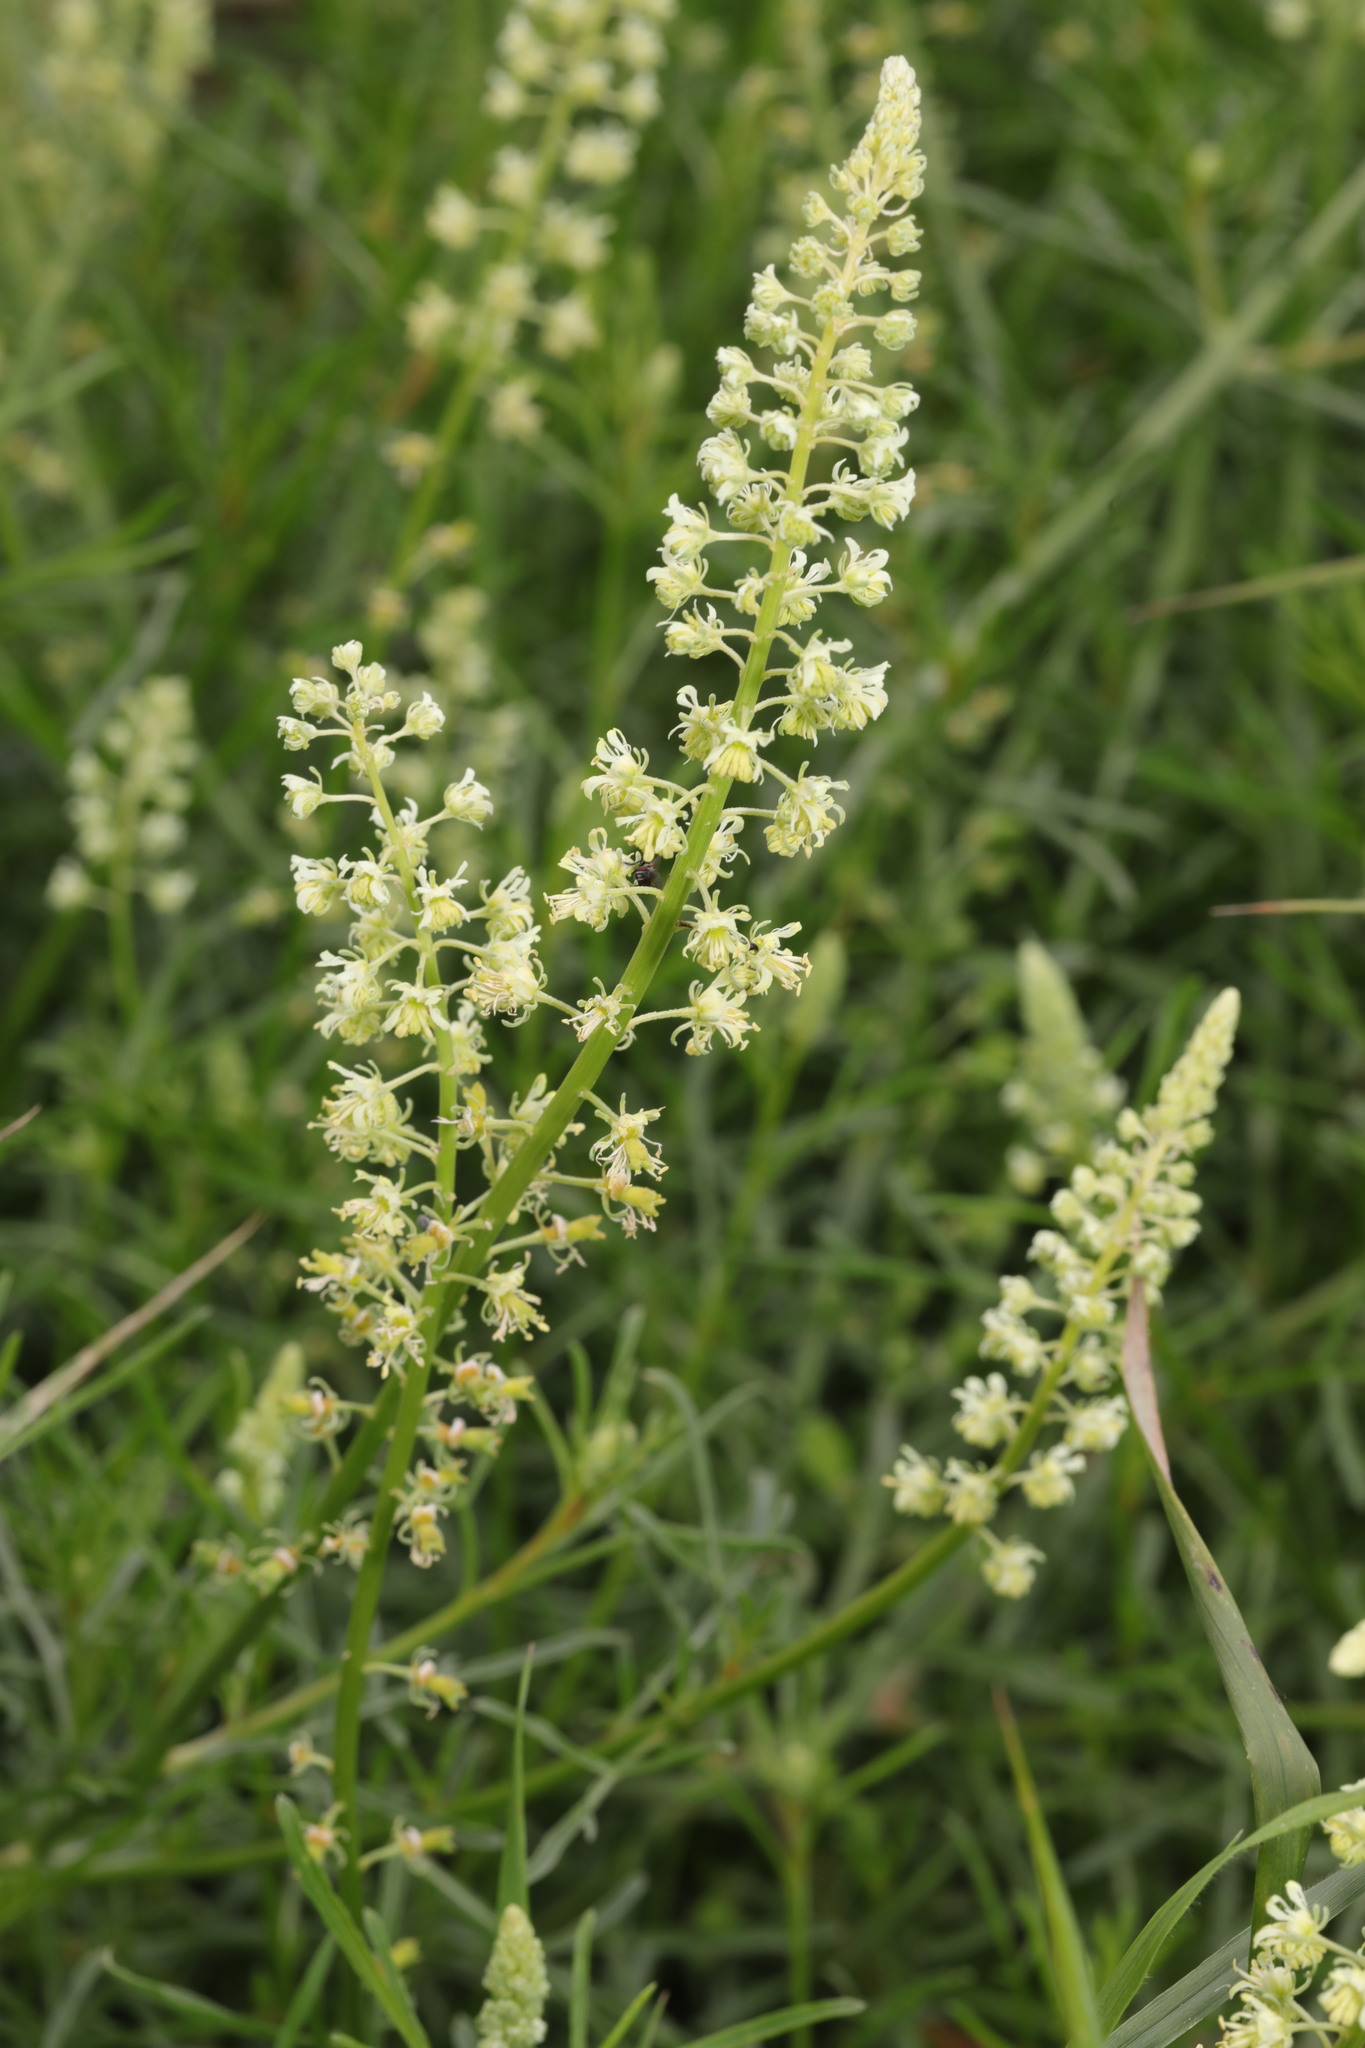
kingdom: Plantae
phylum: Tracheophyta
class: Magnoliopsida
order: Brassicales
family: Resedaceae
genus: Reseda
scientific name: Reseda lutea
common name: Wild mignonette
